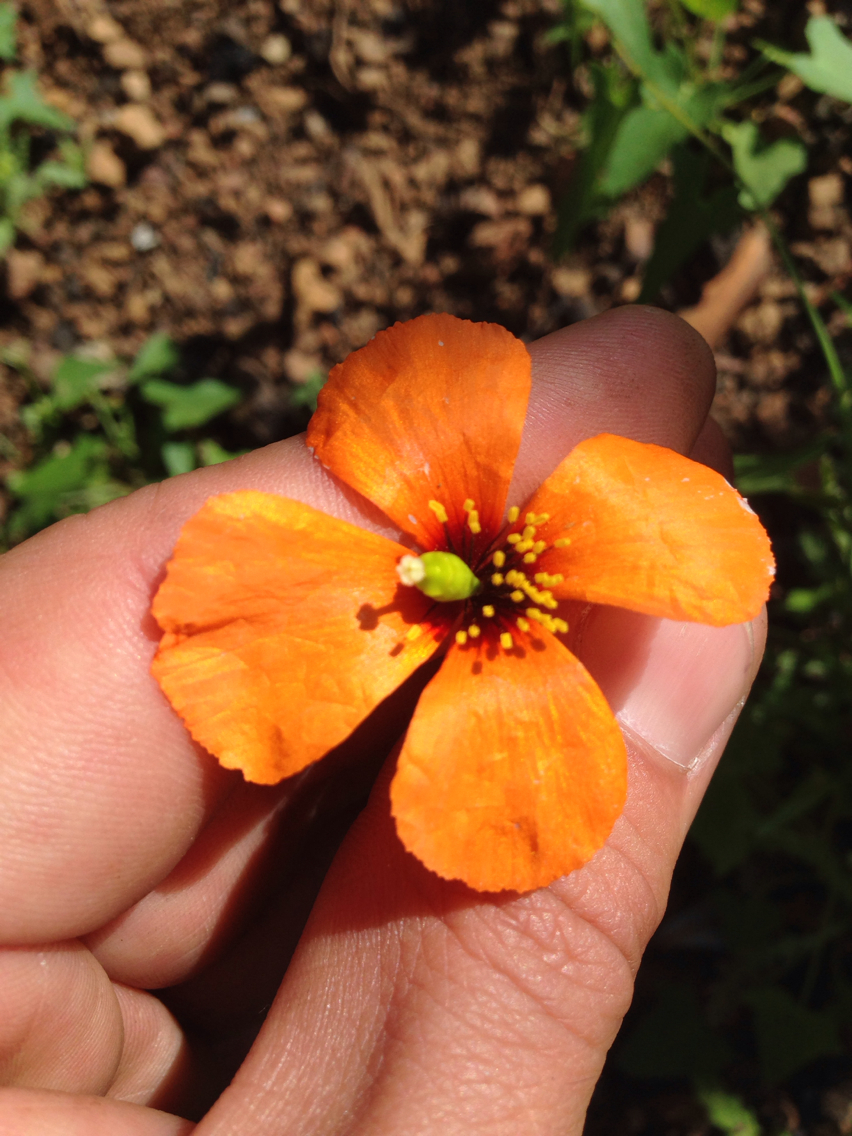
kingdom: Plantae
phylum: Tracheophyta
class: Magnoliopsida
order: Ranunculales
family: Papaveraceae
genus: Stylomecon
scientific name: Stylomecon heterophylla
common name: Flaming-poppy
